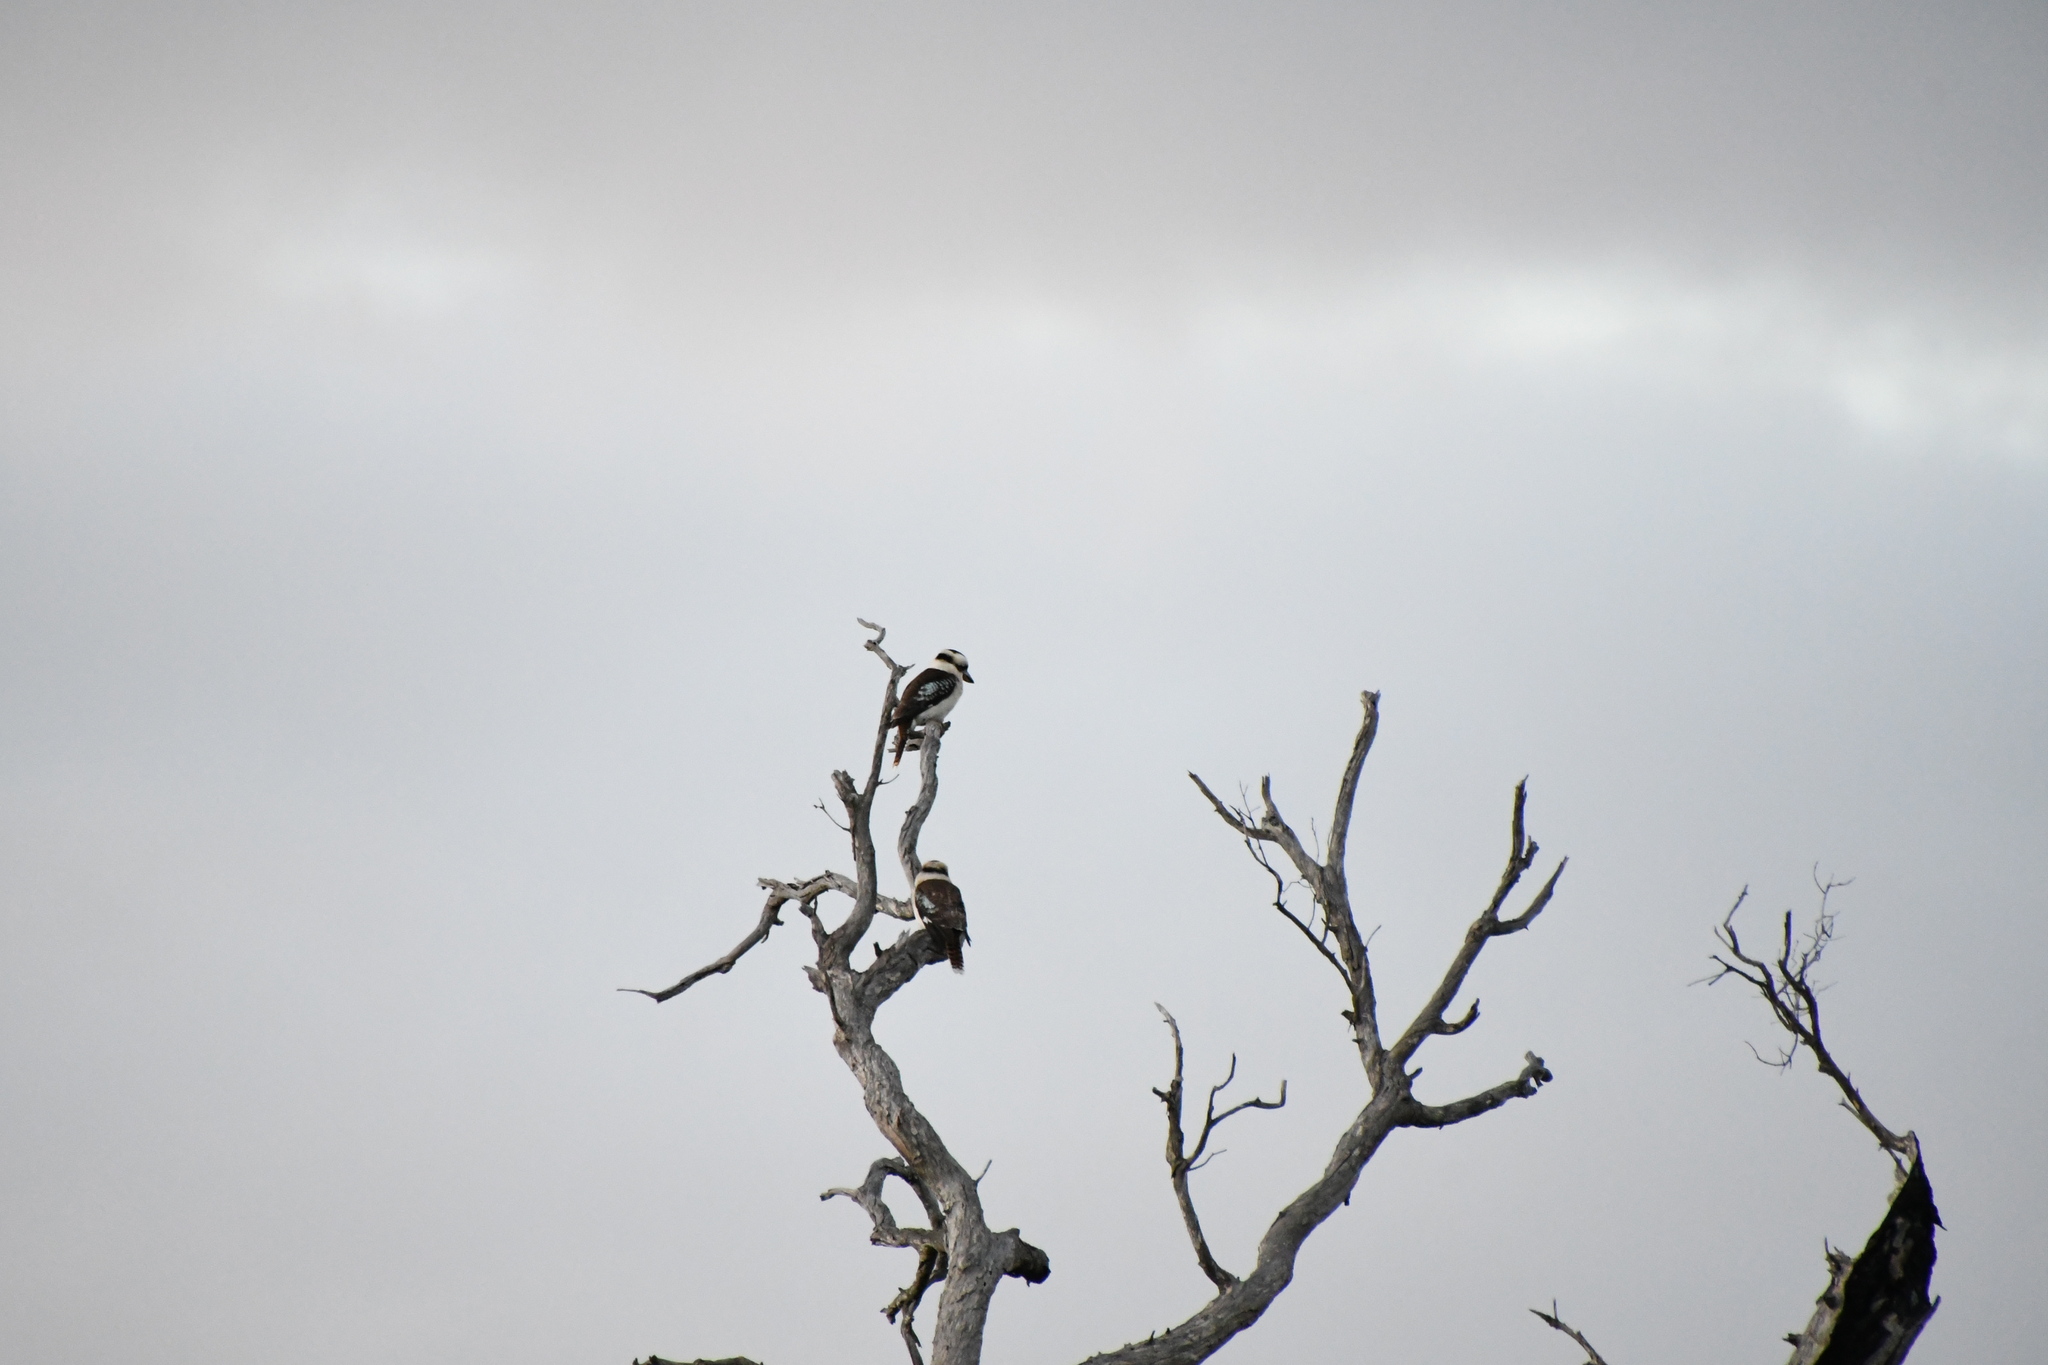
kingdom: Animalia
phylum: Chordata
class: Aves
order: Coraciiformes
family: Alcedinidae
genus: Dacelo
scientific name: Dacelo novaeguineae
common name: Laughing kookaburra
